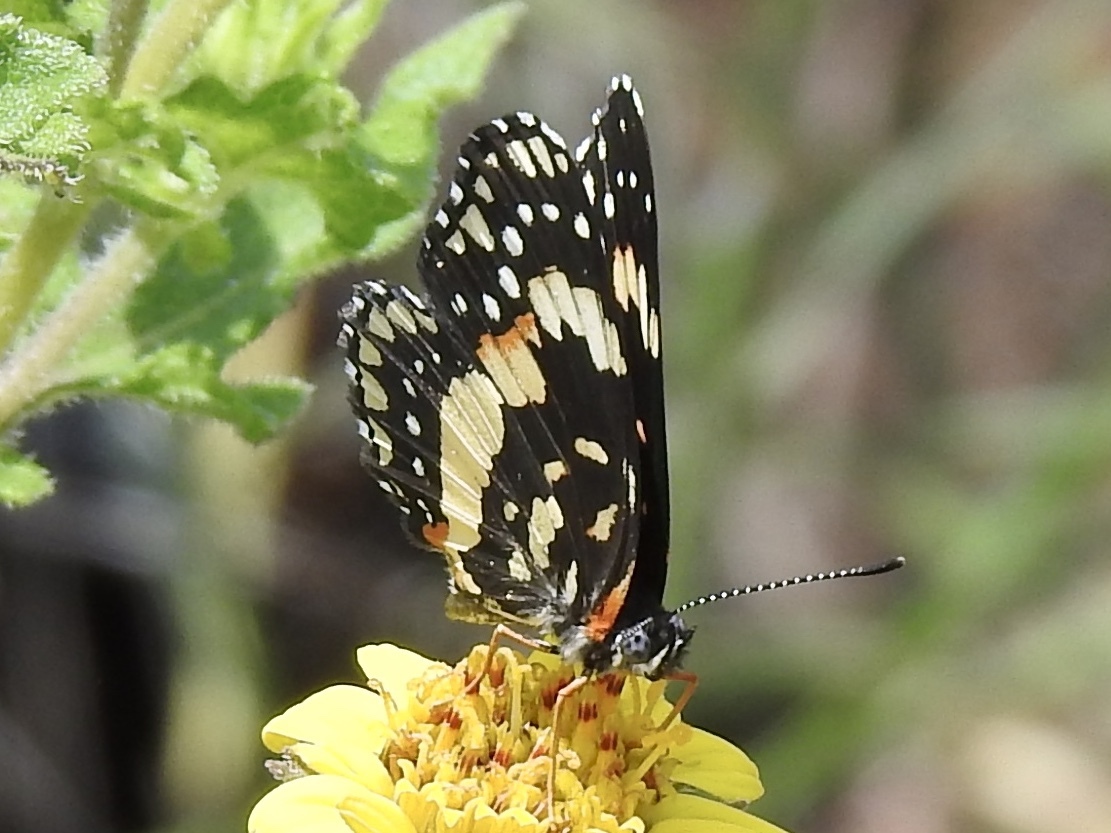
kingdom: Animalia
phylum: Arthropoda
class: Insecta
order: Lepidoptera
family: Nymphalidae
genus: Chlosyne
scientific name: Chlosyne lacinia
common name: Bordered patch
